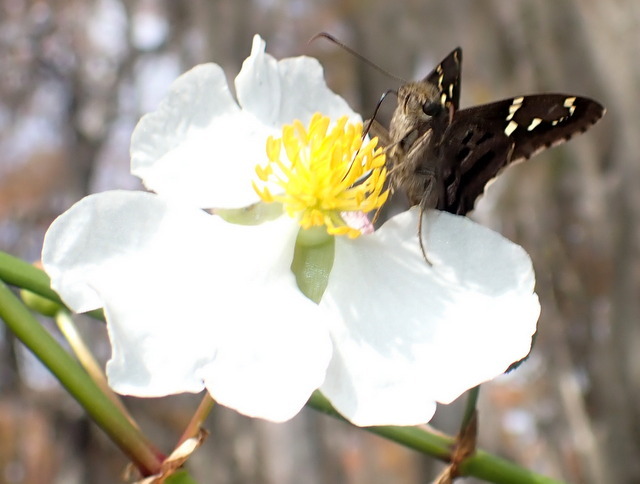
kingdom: Animalia
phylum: Arthropoda
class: Insecta
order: Lepidoptera
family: Hesperiidae
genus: Urbanus
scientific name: Urbanus proteus
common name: Long-tailed skipper
